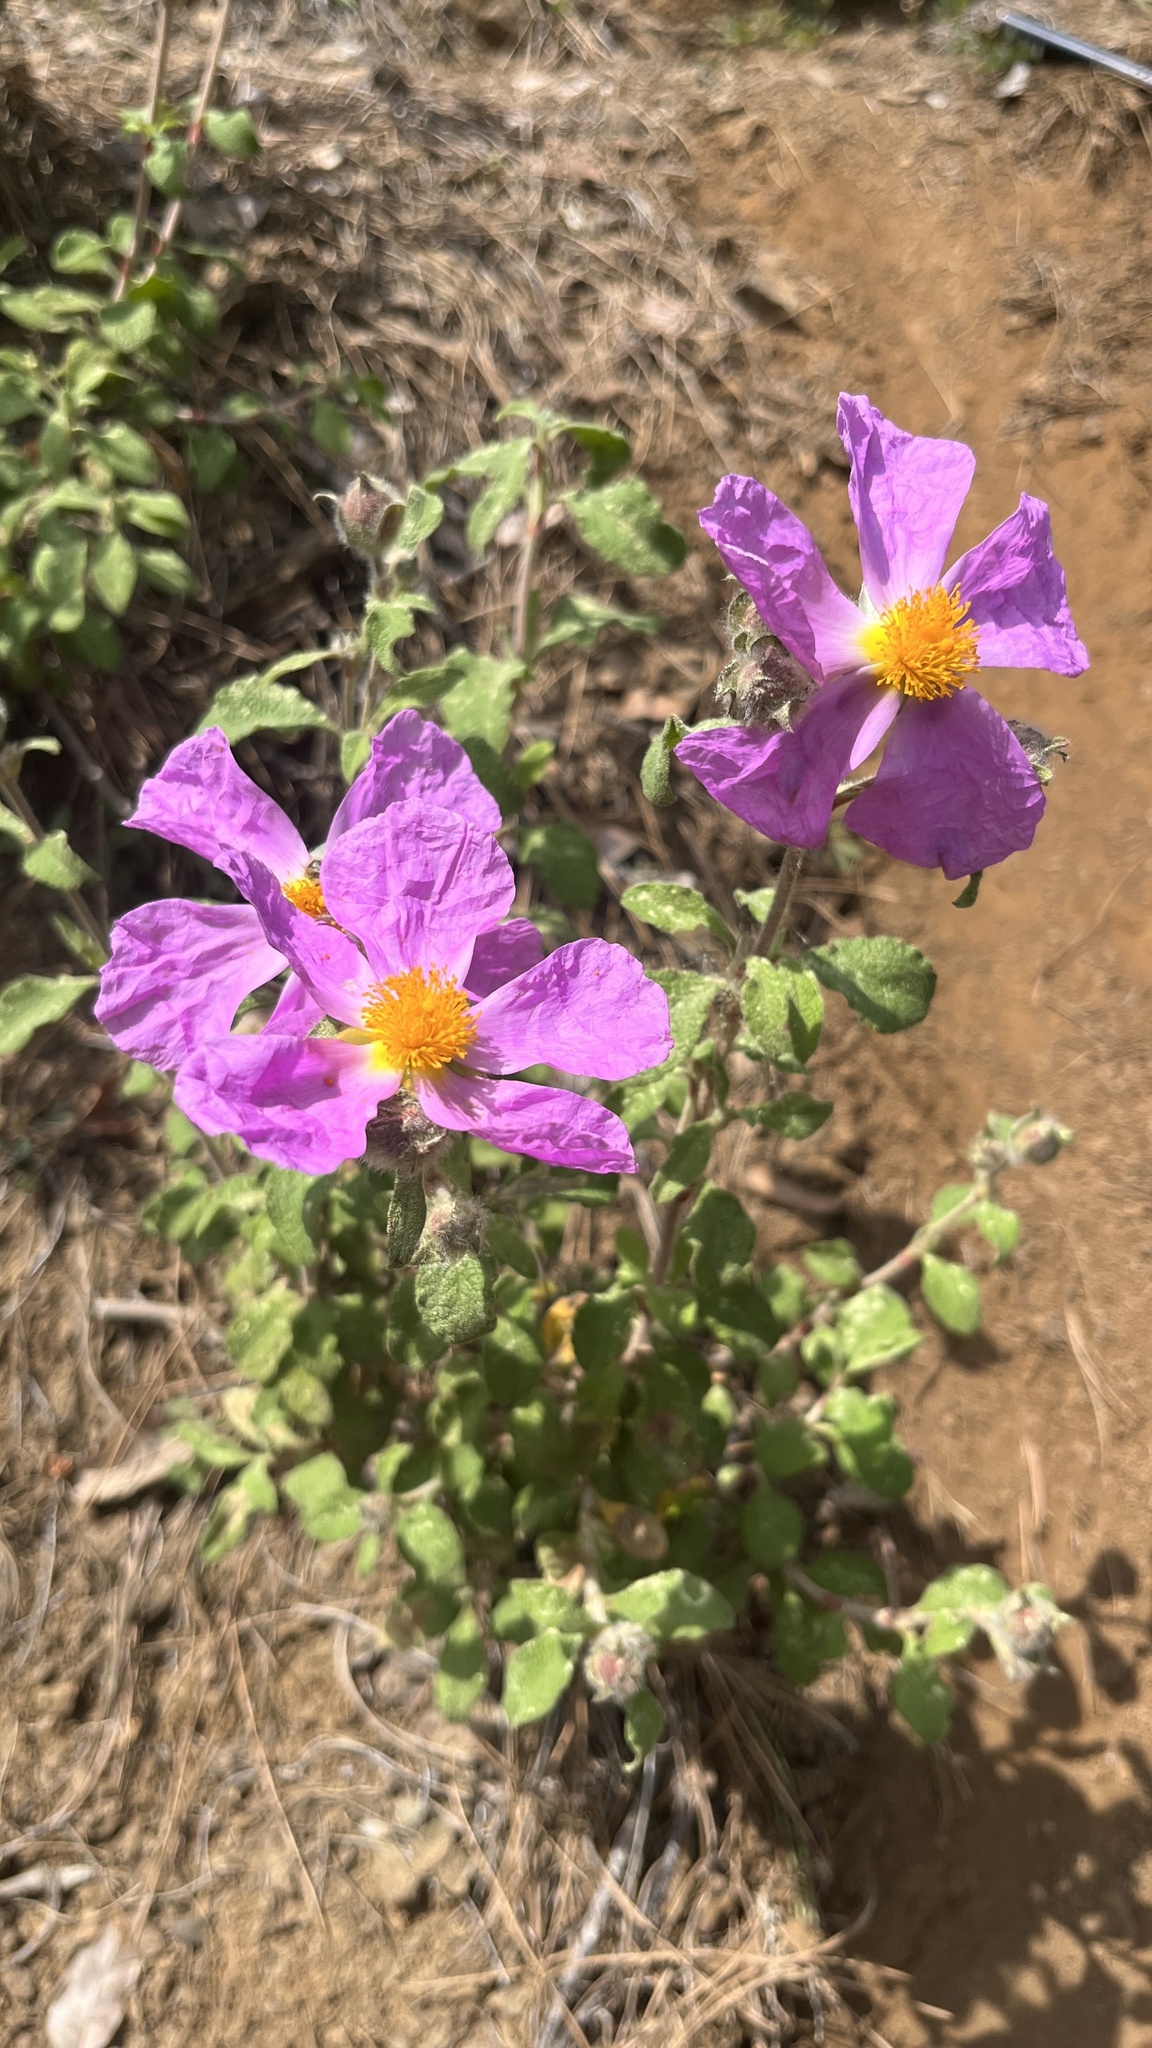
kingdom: Plantae
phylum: Tracheophyta
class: Magnoliopsida
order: Malvales
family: Cistaceae
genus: Cistus
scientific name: Cistus creticus
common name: Cretan rockrose
